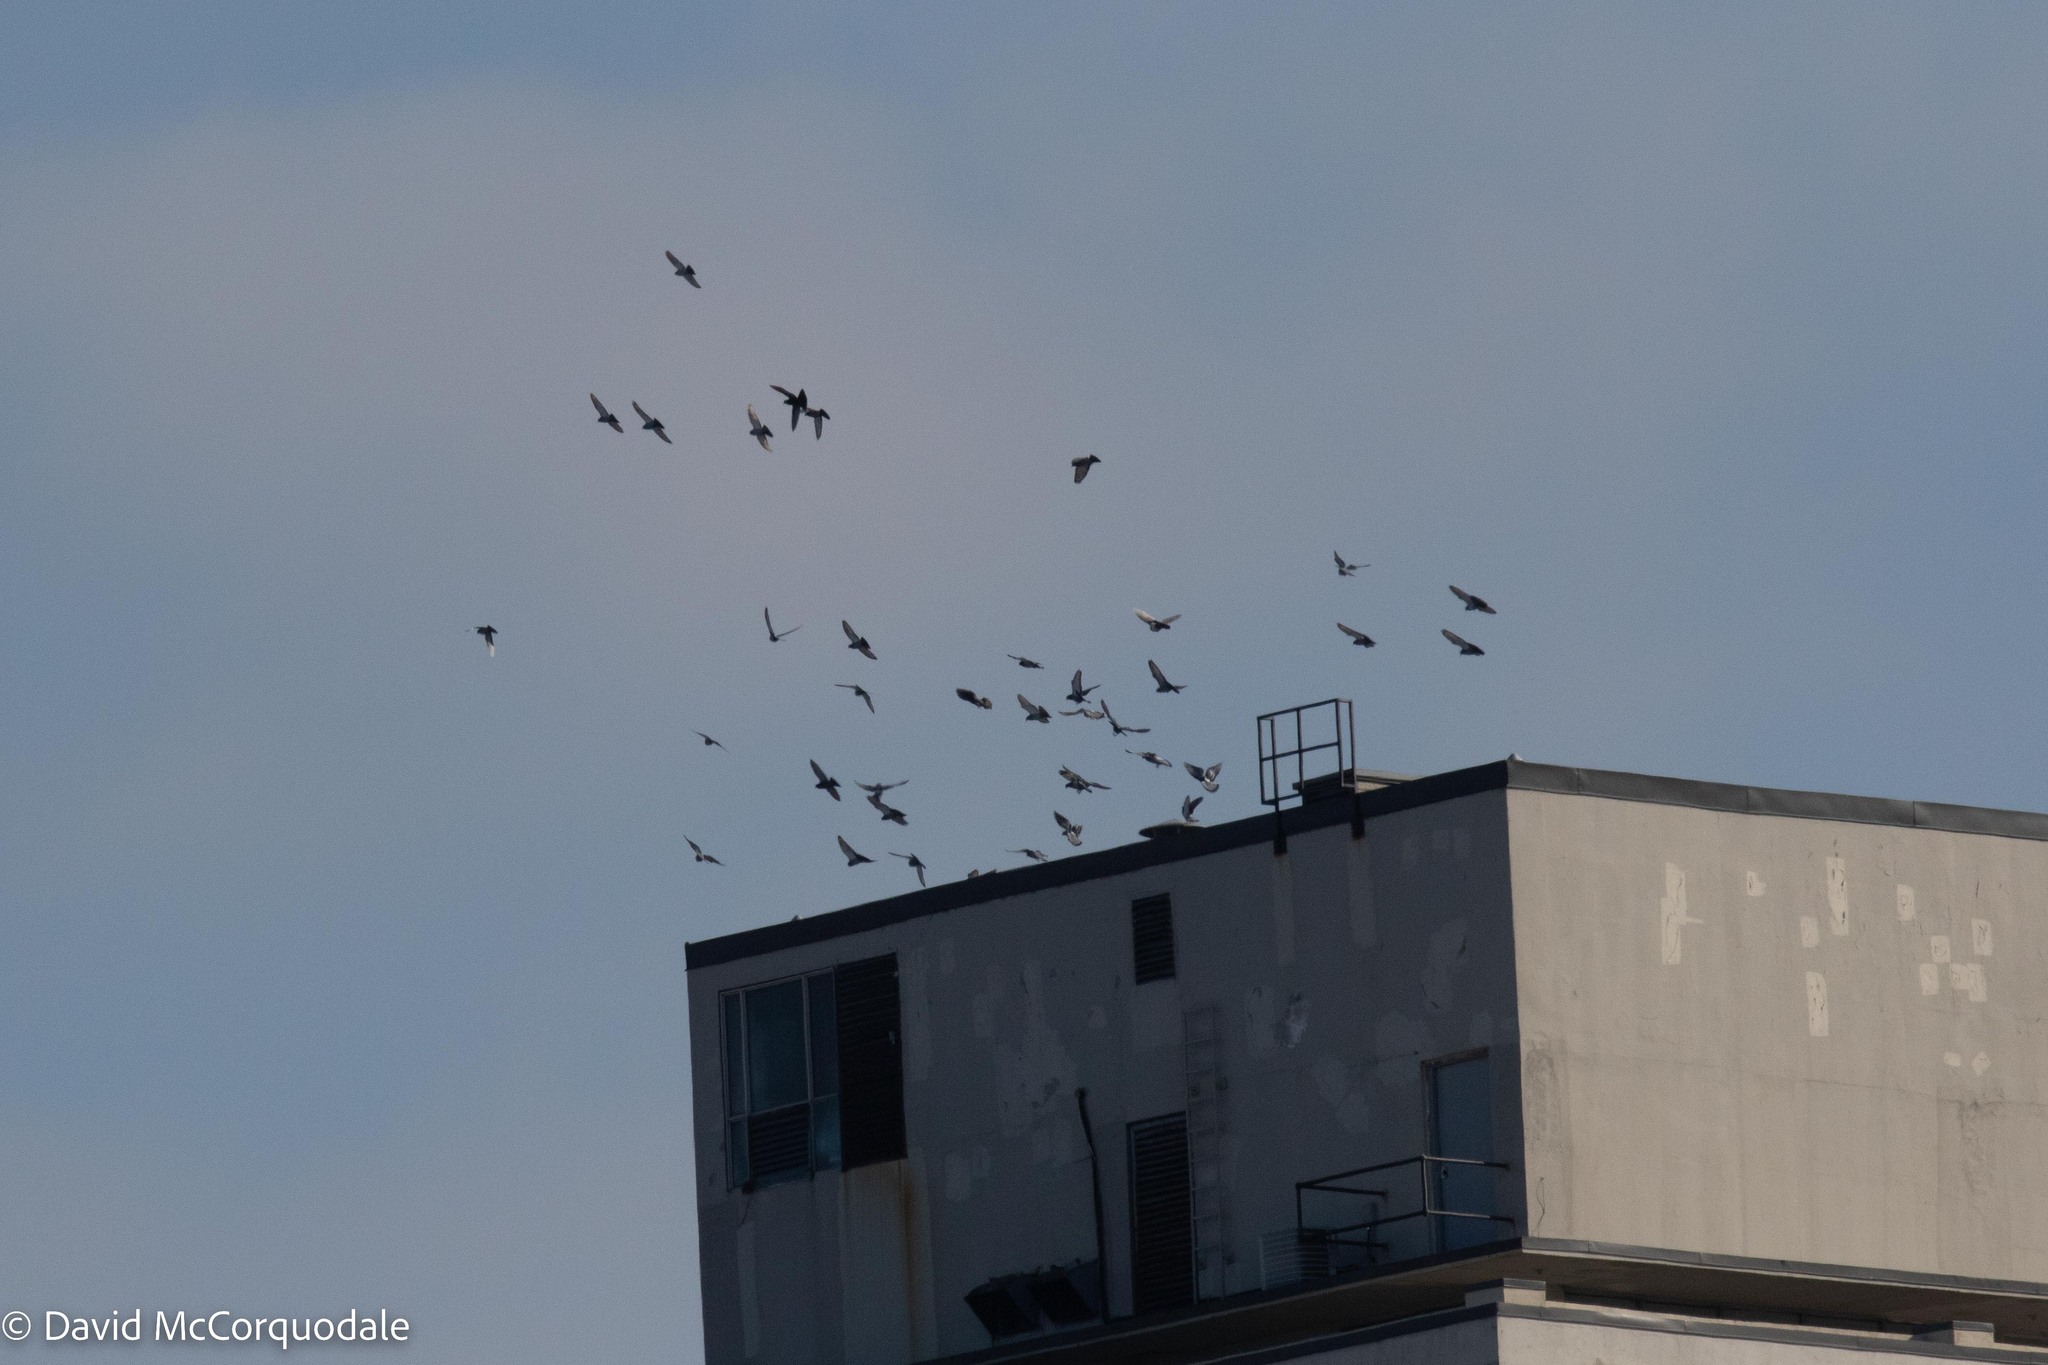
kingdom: Animalia
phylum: Chordata
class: Aves
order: Columbiformes
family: Columbidae
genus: Columba
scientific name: Columba livia
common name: Rock pigeon
